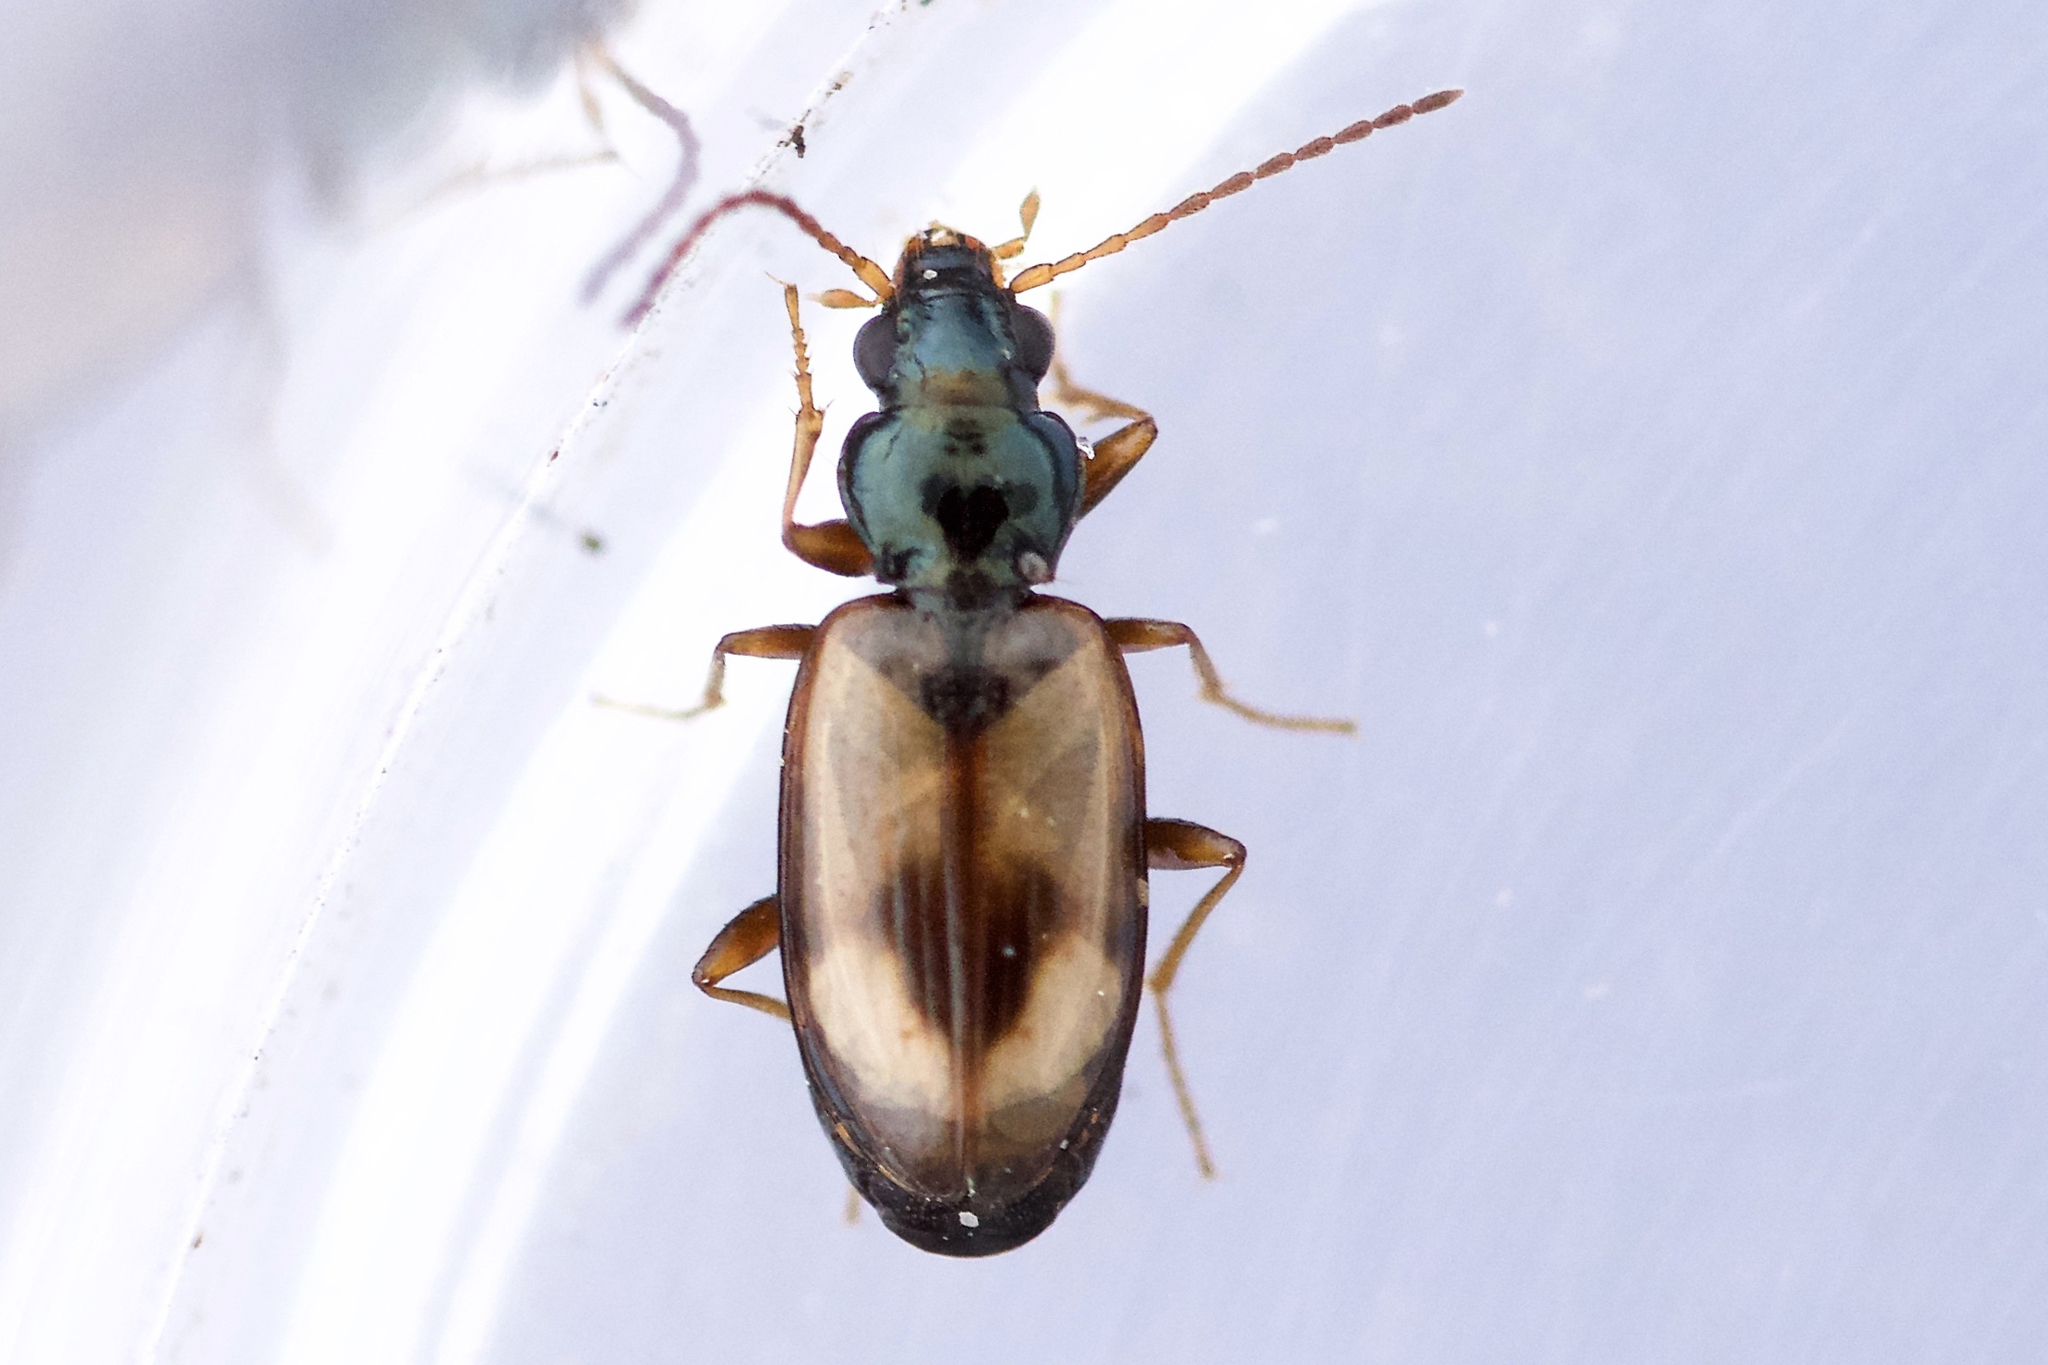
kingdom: Animalia
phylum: Arthropoda
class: Insecta
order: Coleoptera
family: Carabidae
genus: Bembidion
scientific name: Bembidion obscurellum
